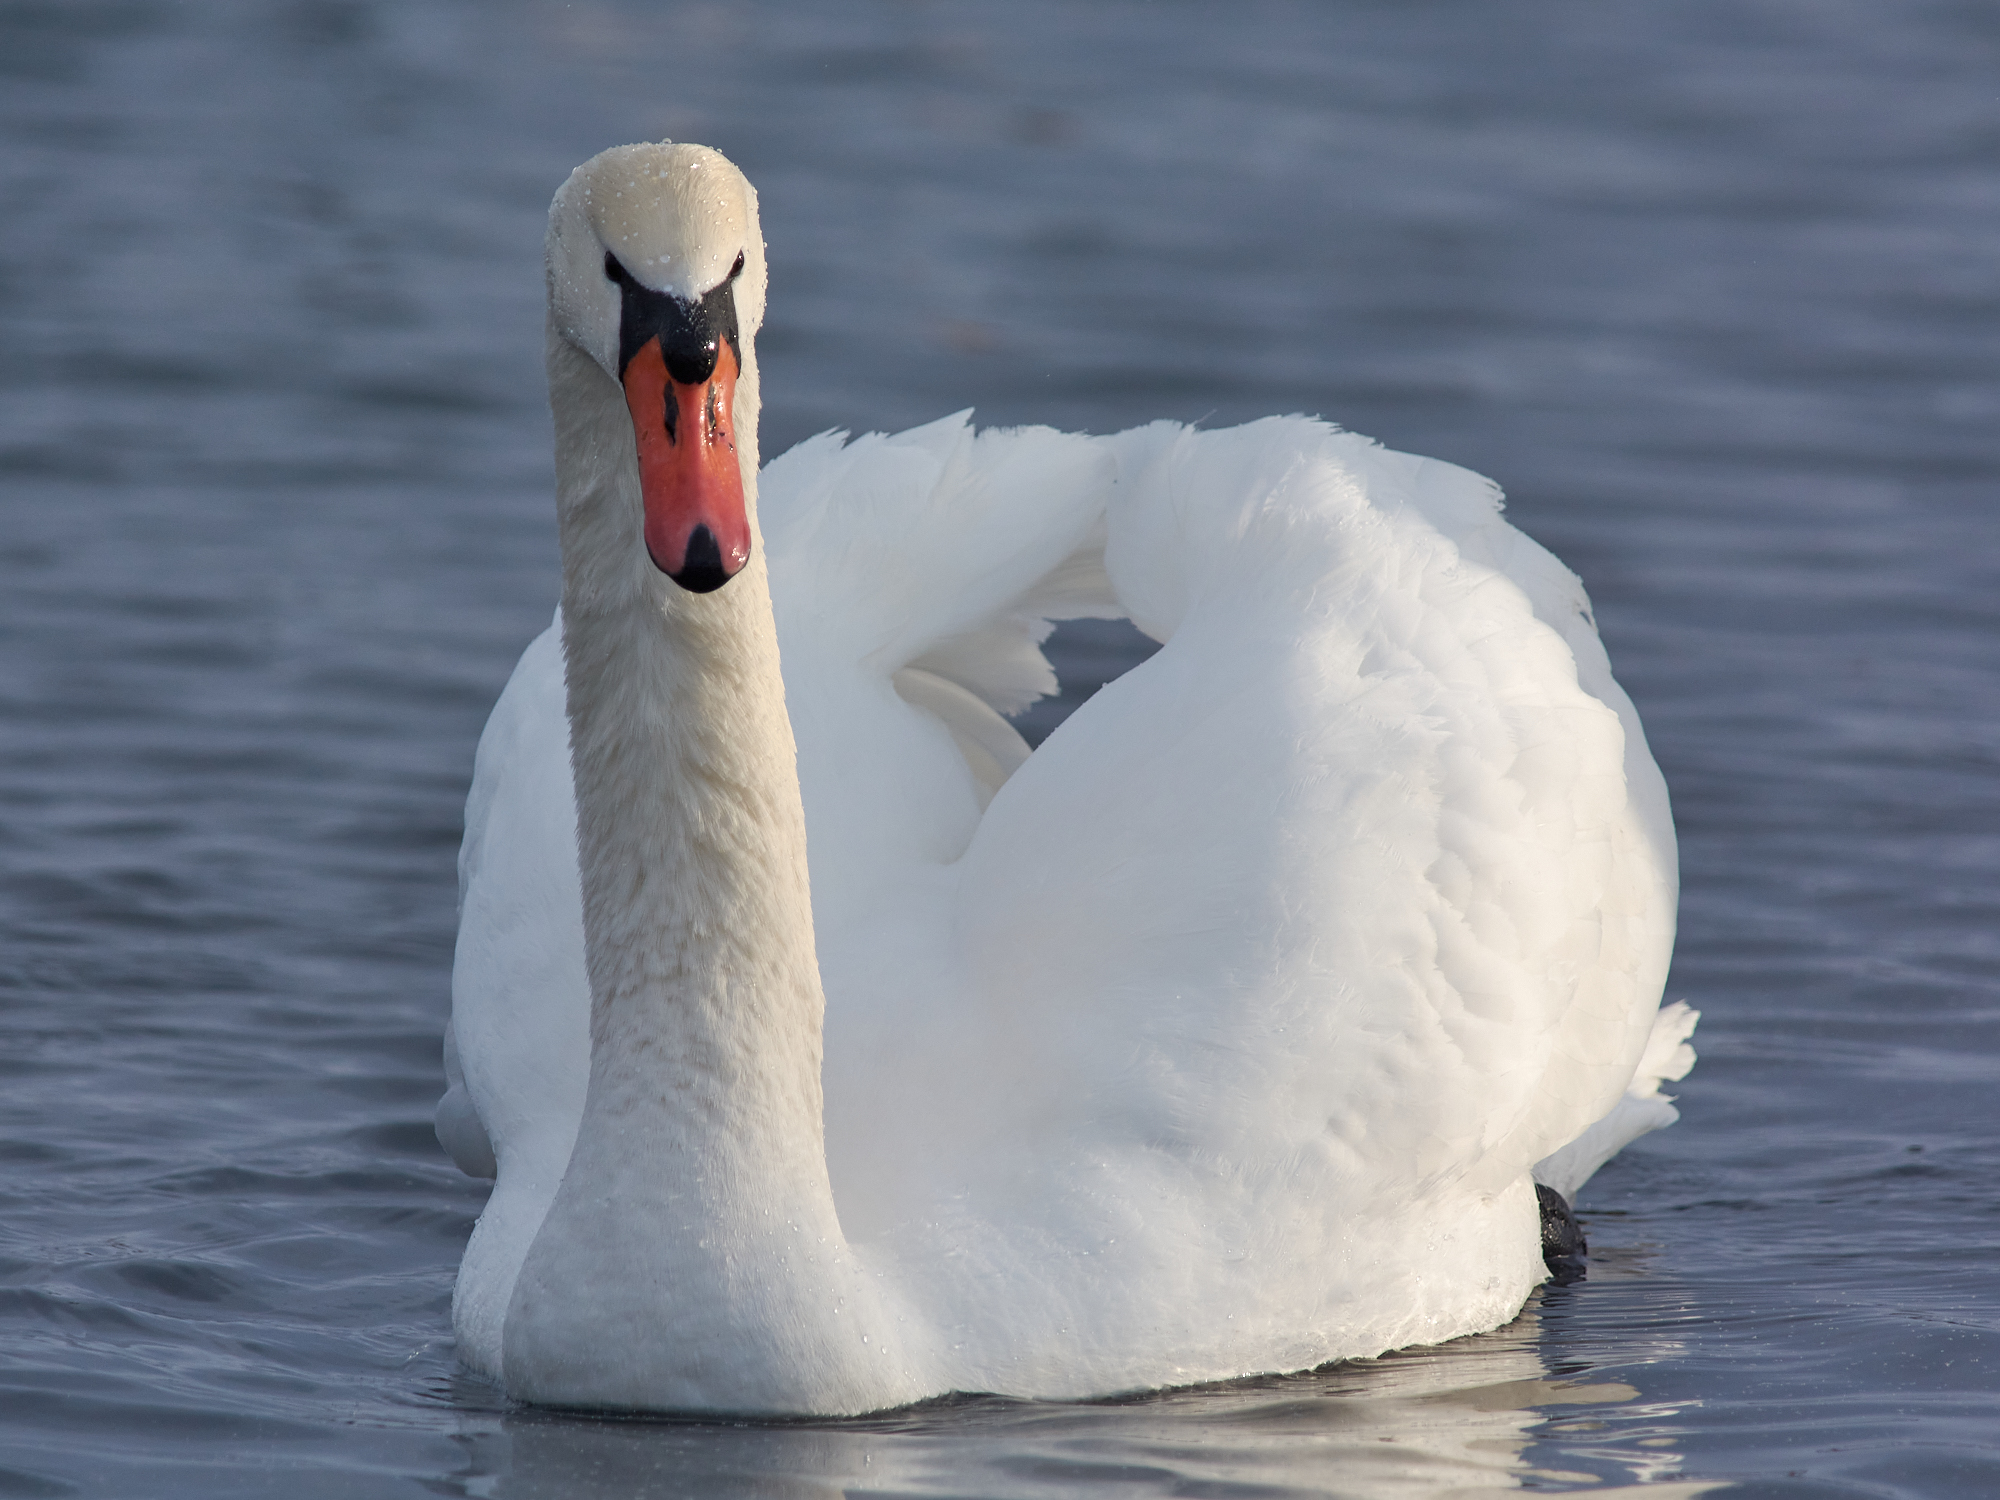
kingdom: Animalia
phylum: Chordata
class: Aves
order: Anseriformes
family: Anatidae
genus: Cygnus
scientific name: Cygnus olor
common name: Mute swan
